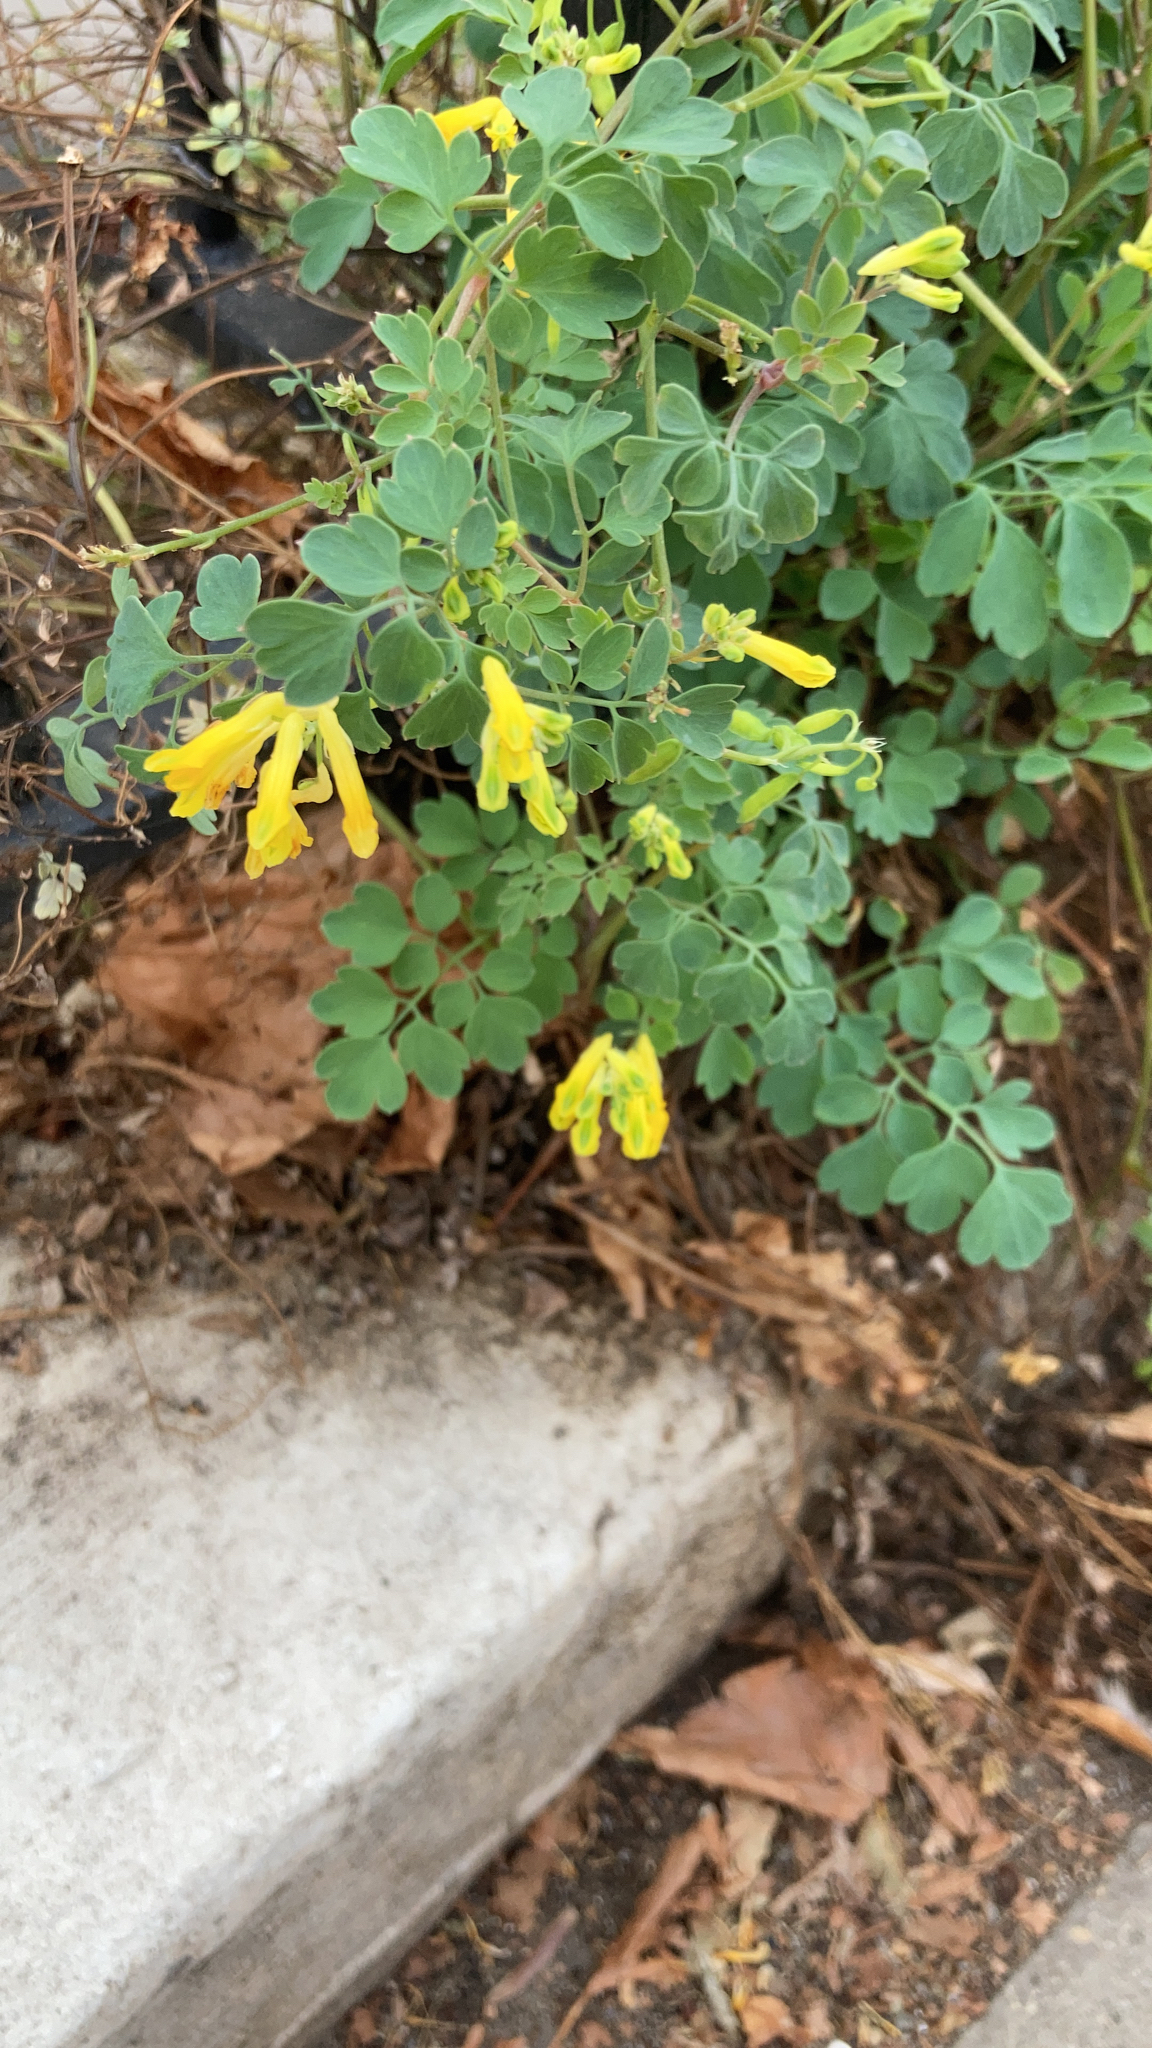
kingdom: Plantae
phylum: Tracheophyta
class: Magnoliopsida
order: Ranunculales
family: Papaveraceae
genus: Pseudofumaria
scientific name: Pseudofumaria lutea
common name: Yellow corydalis
